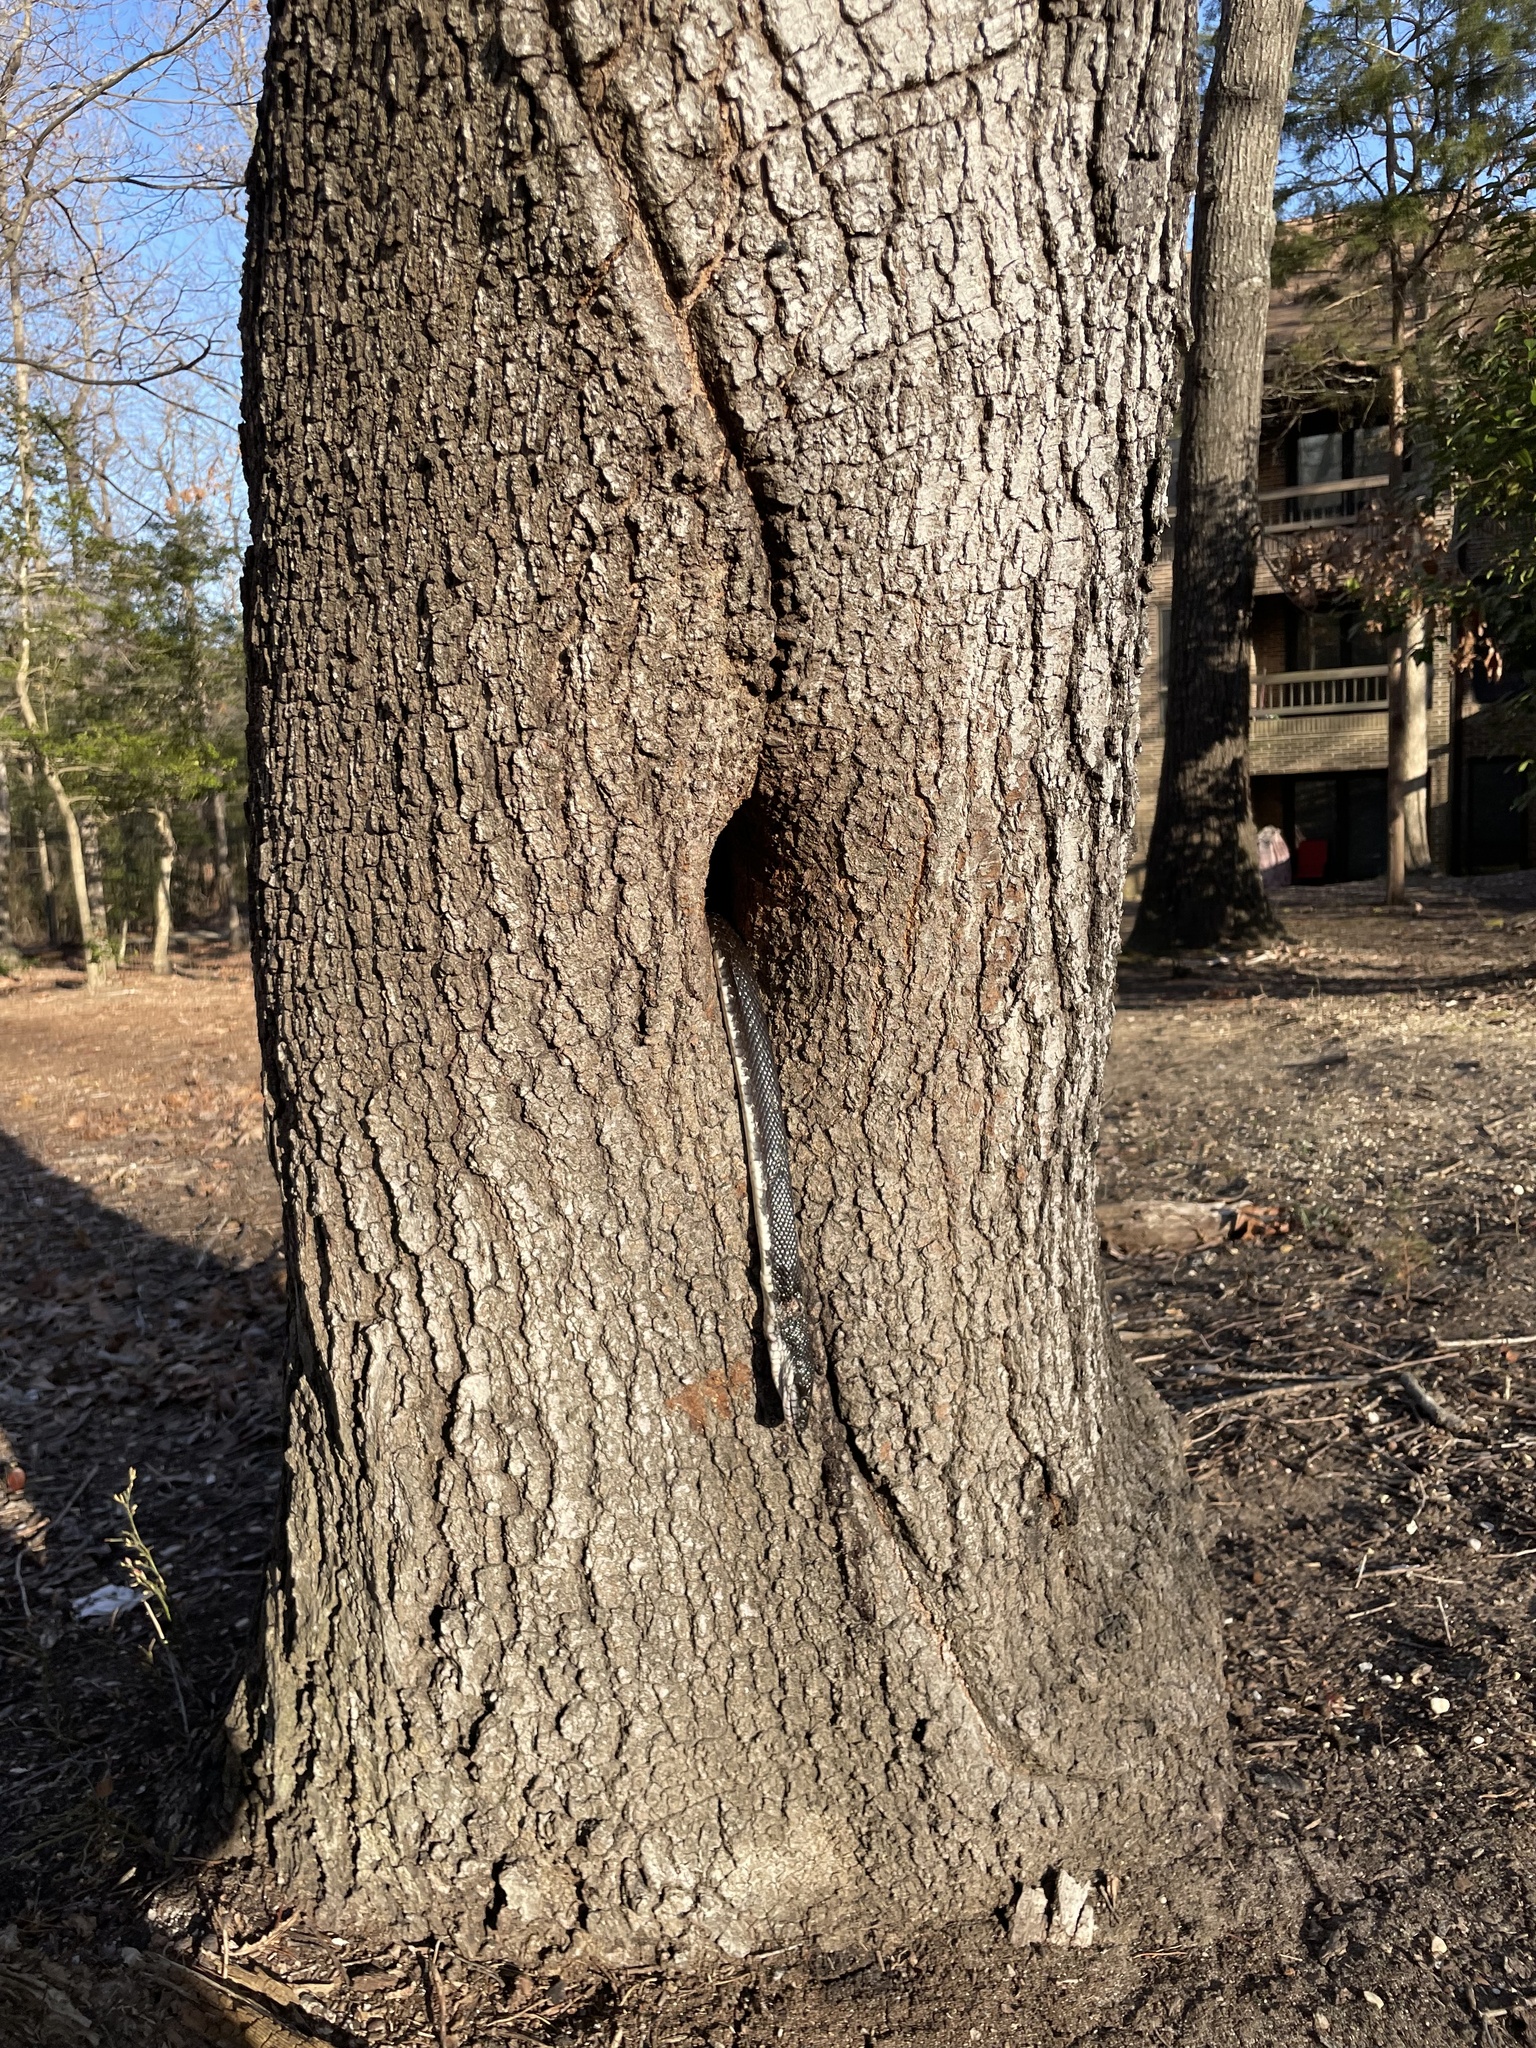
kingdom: Animalia
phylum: Chordata
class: Squamata
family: Colubridae
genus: Pantherophis
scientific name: Pantherophis alleghaniensis
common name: Eastern rat snake
